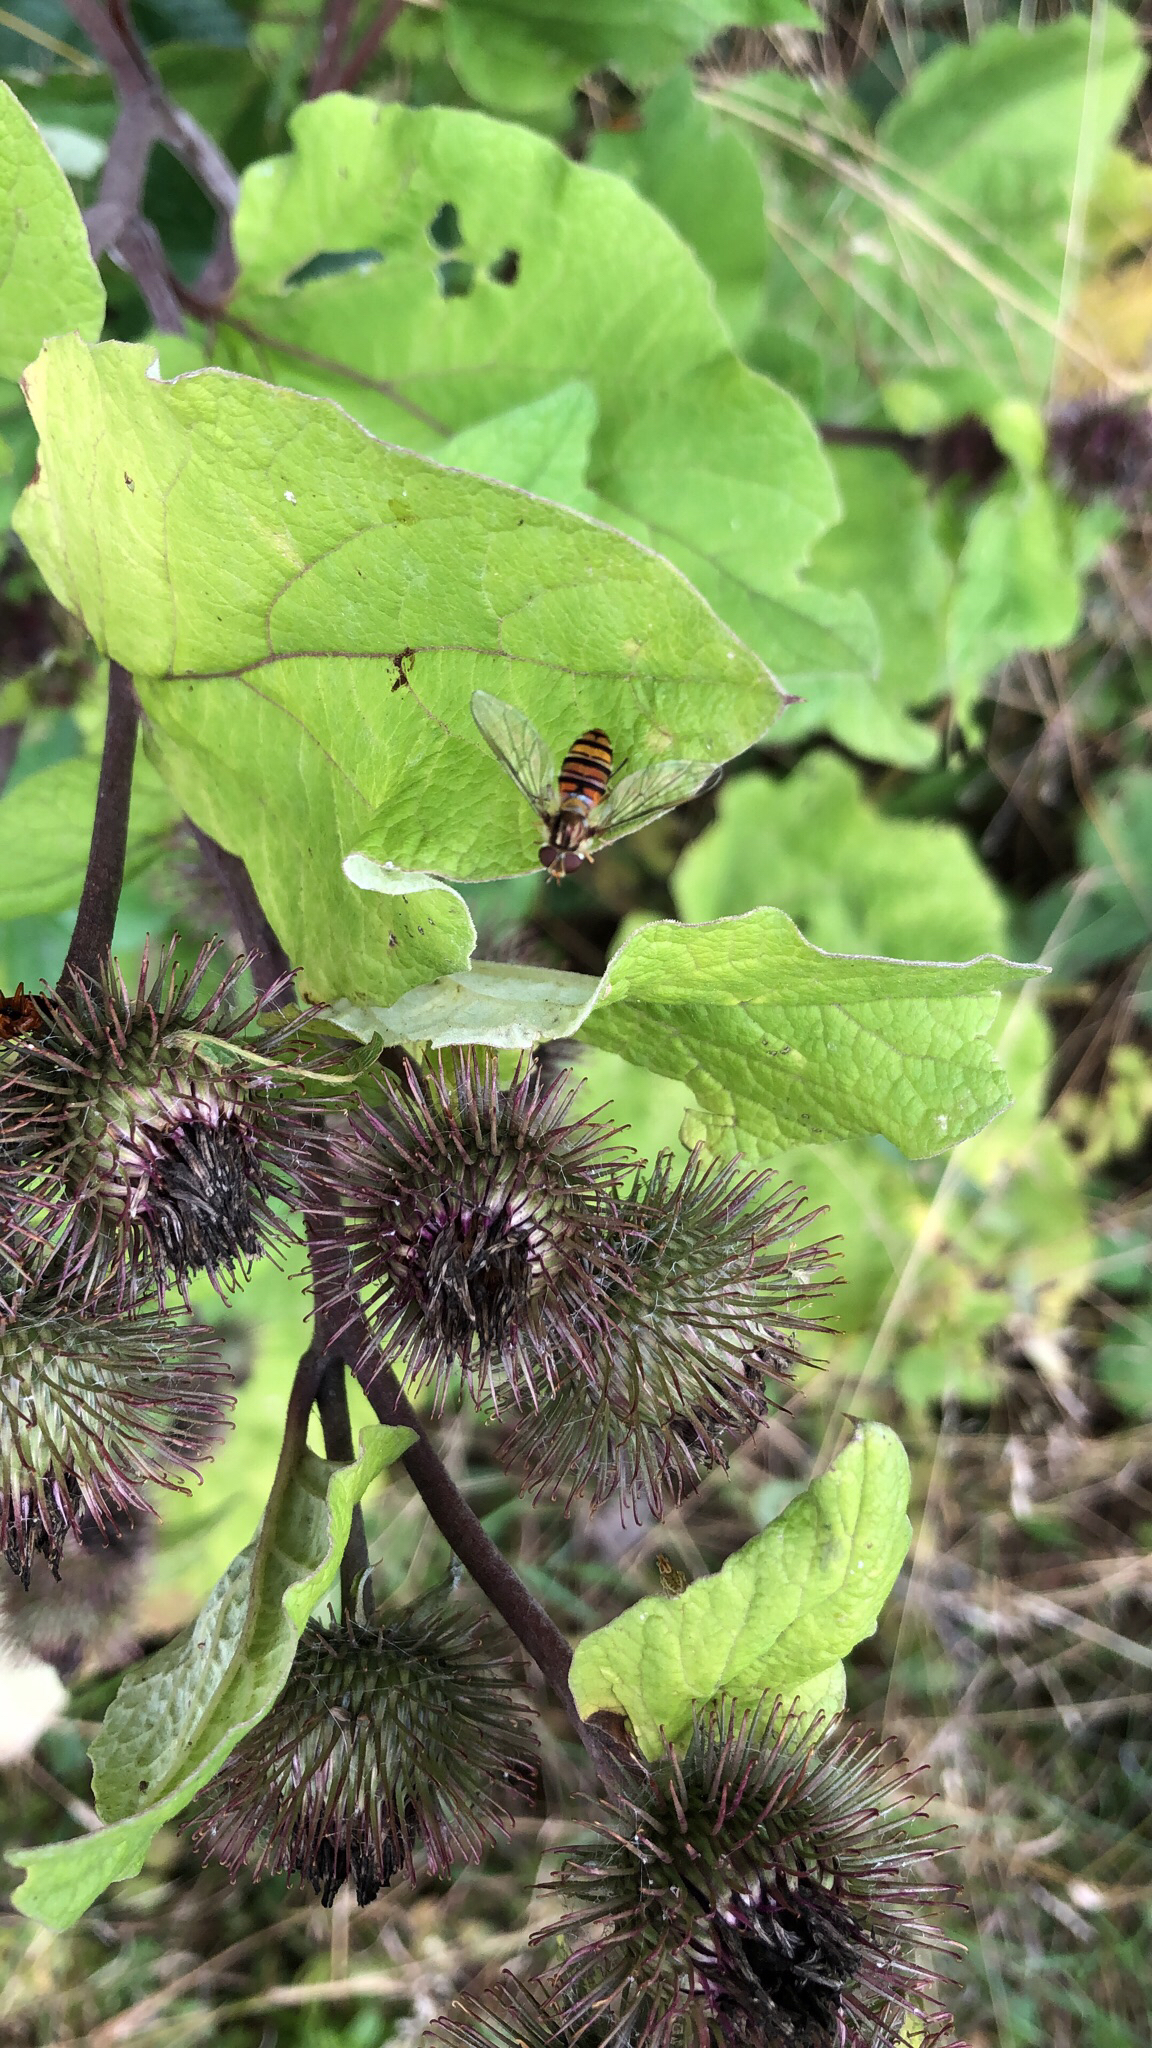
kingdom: Animalia
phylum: Arthropoda
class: Insecta
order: Diptera
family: Syrphidae
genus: Episyrphus
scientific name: Episyrphus balteatus
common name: Marmalade hoverfly
